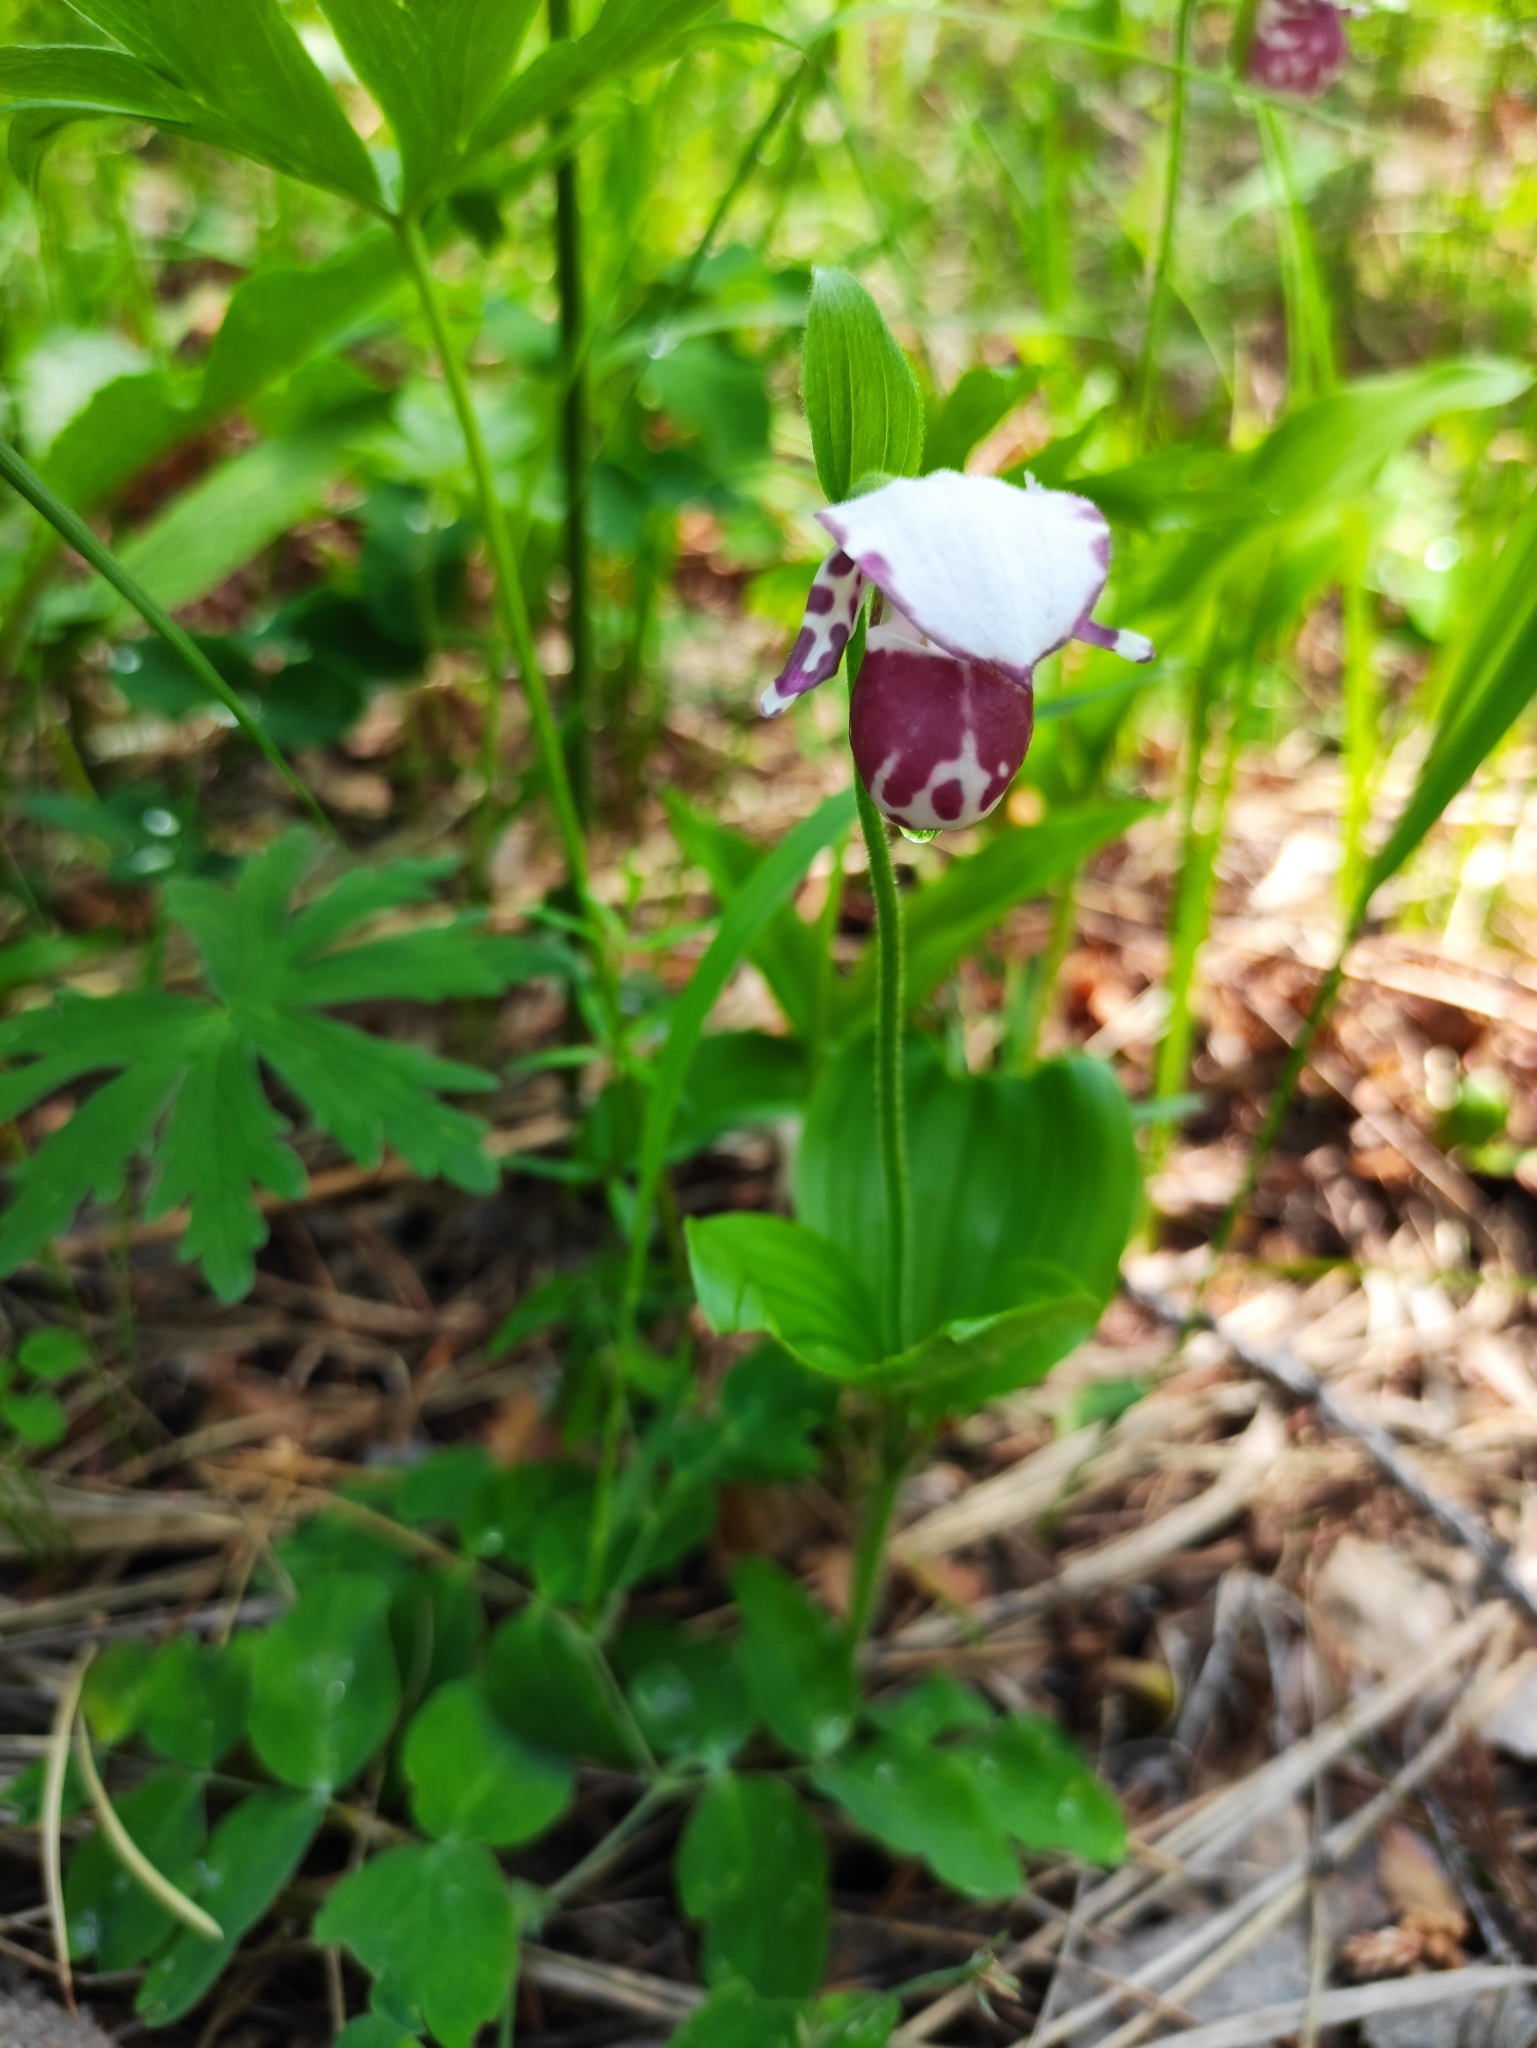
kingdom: Plantae
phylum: Tracheophyta
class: Liliopsida
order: Asparagales
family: Orchidaceae
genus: Cypripedium
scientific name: Cypripedium guttatum
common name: Pink lady slipper
